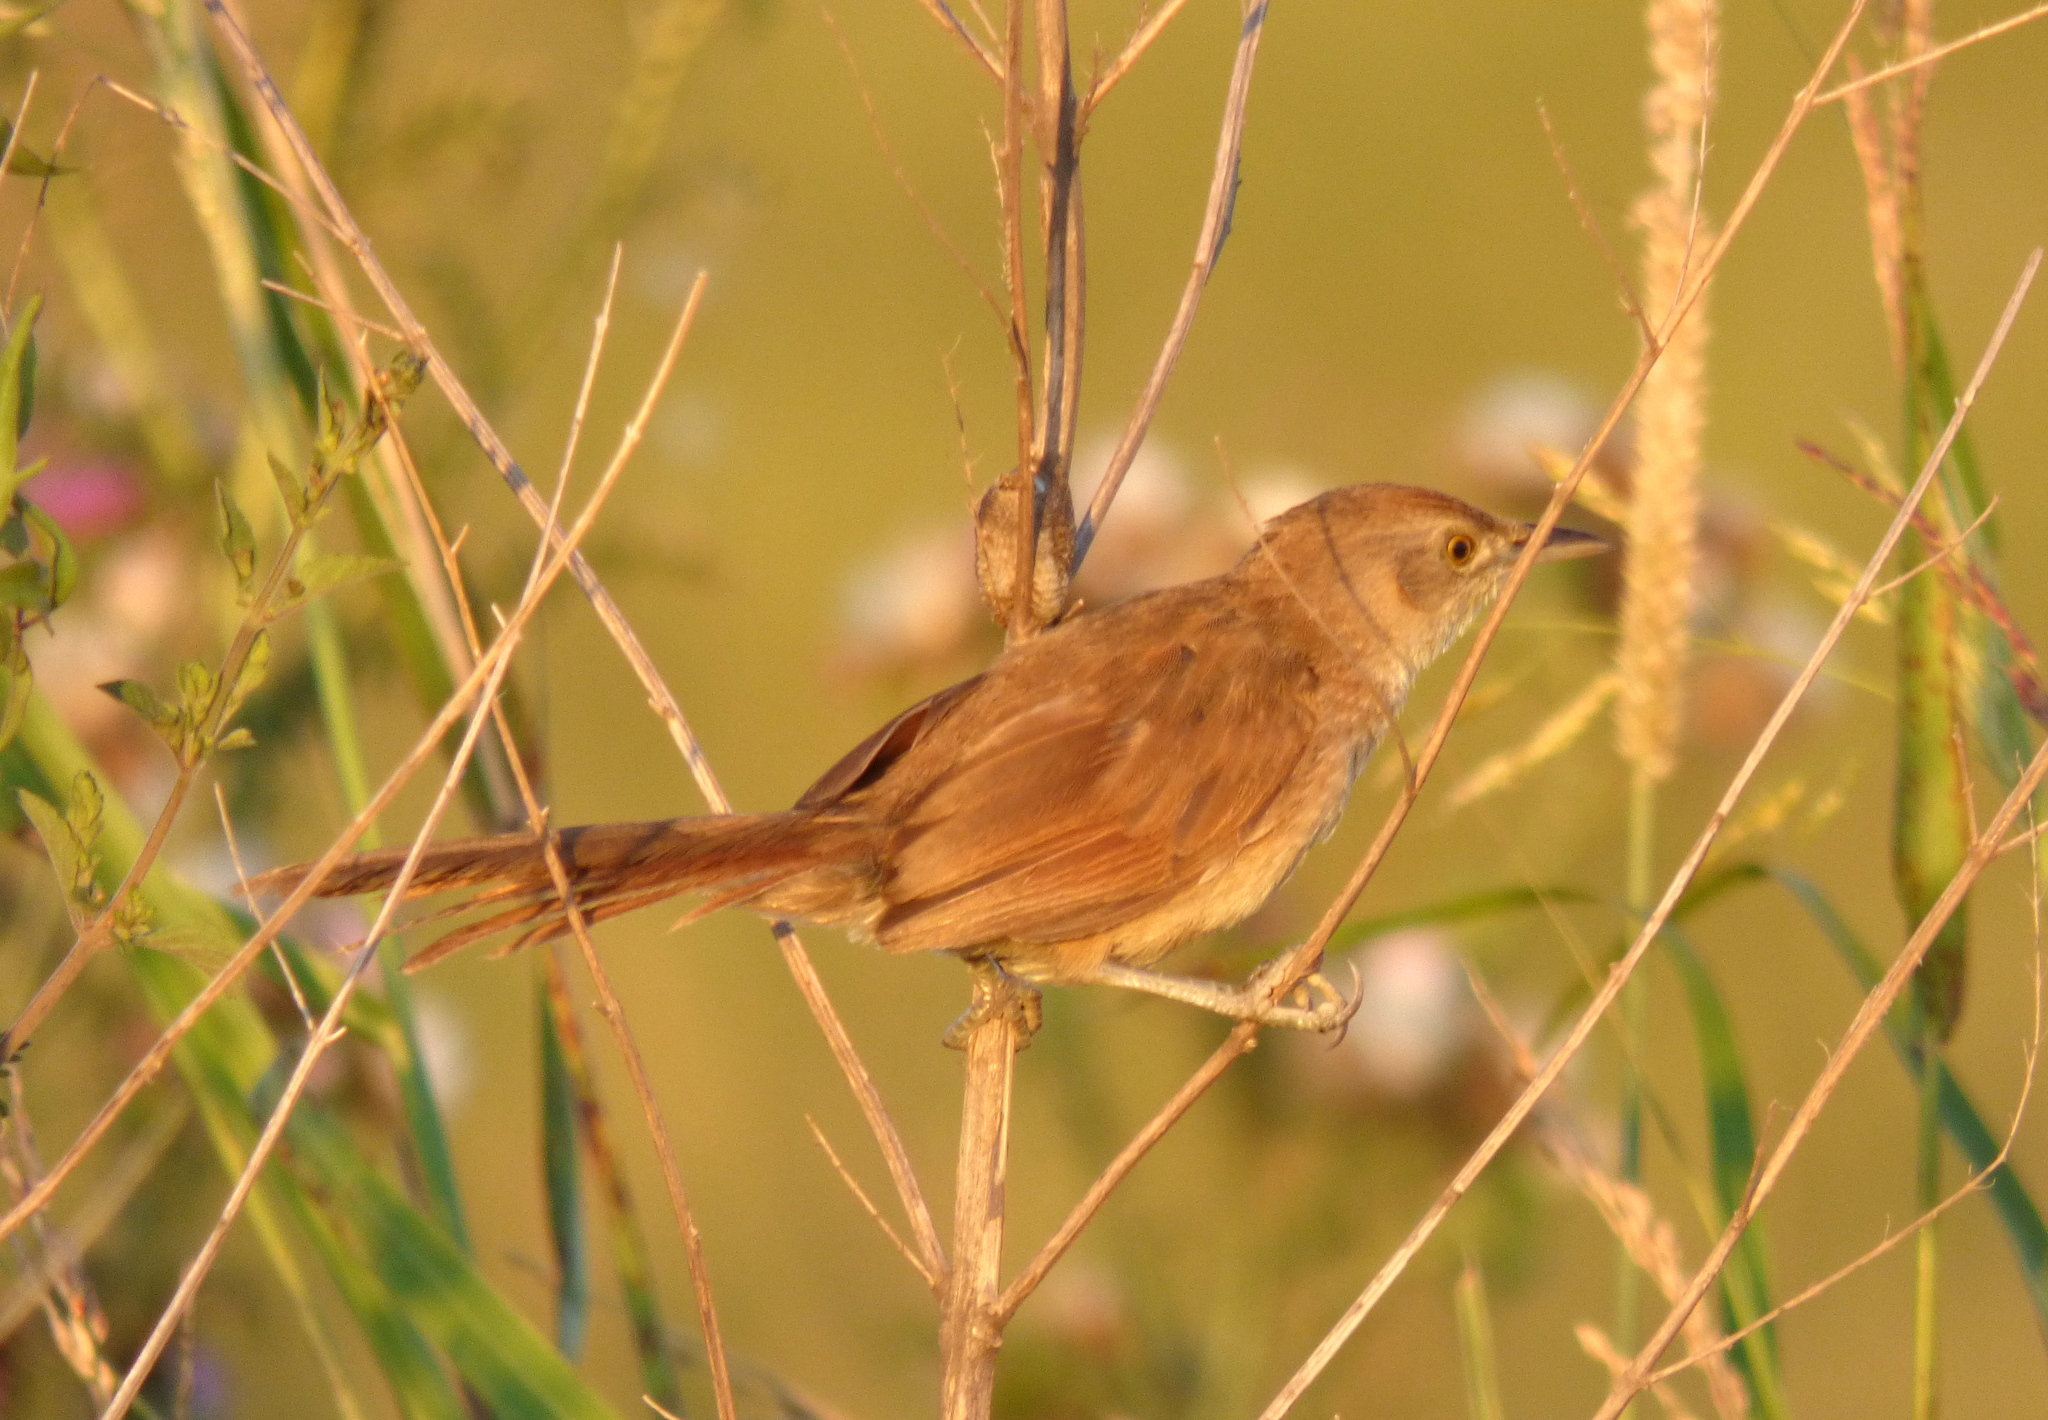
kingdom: Animalia
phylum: Chordata
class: Aves
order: Passeriformes
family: Furnariidae
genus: Phacellodomus
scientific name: Phacellodomus striaticollis
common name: Freckle-breasted thornbird
